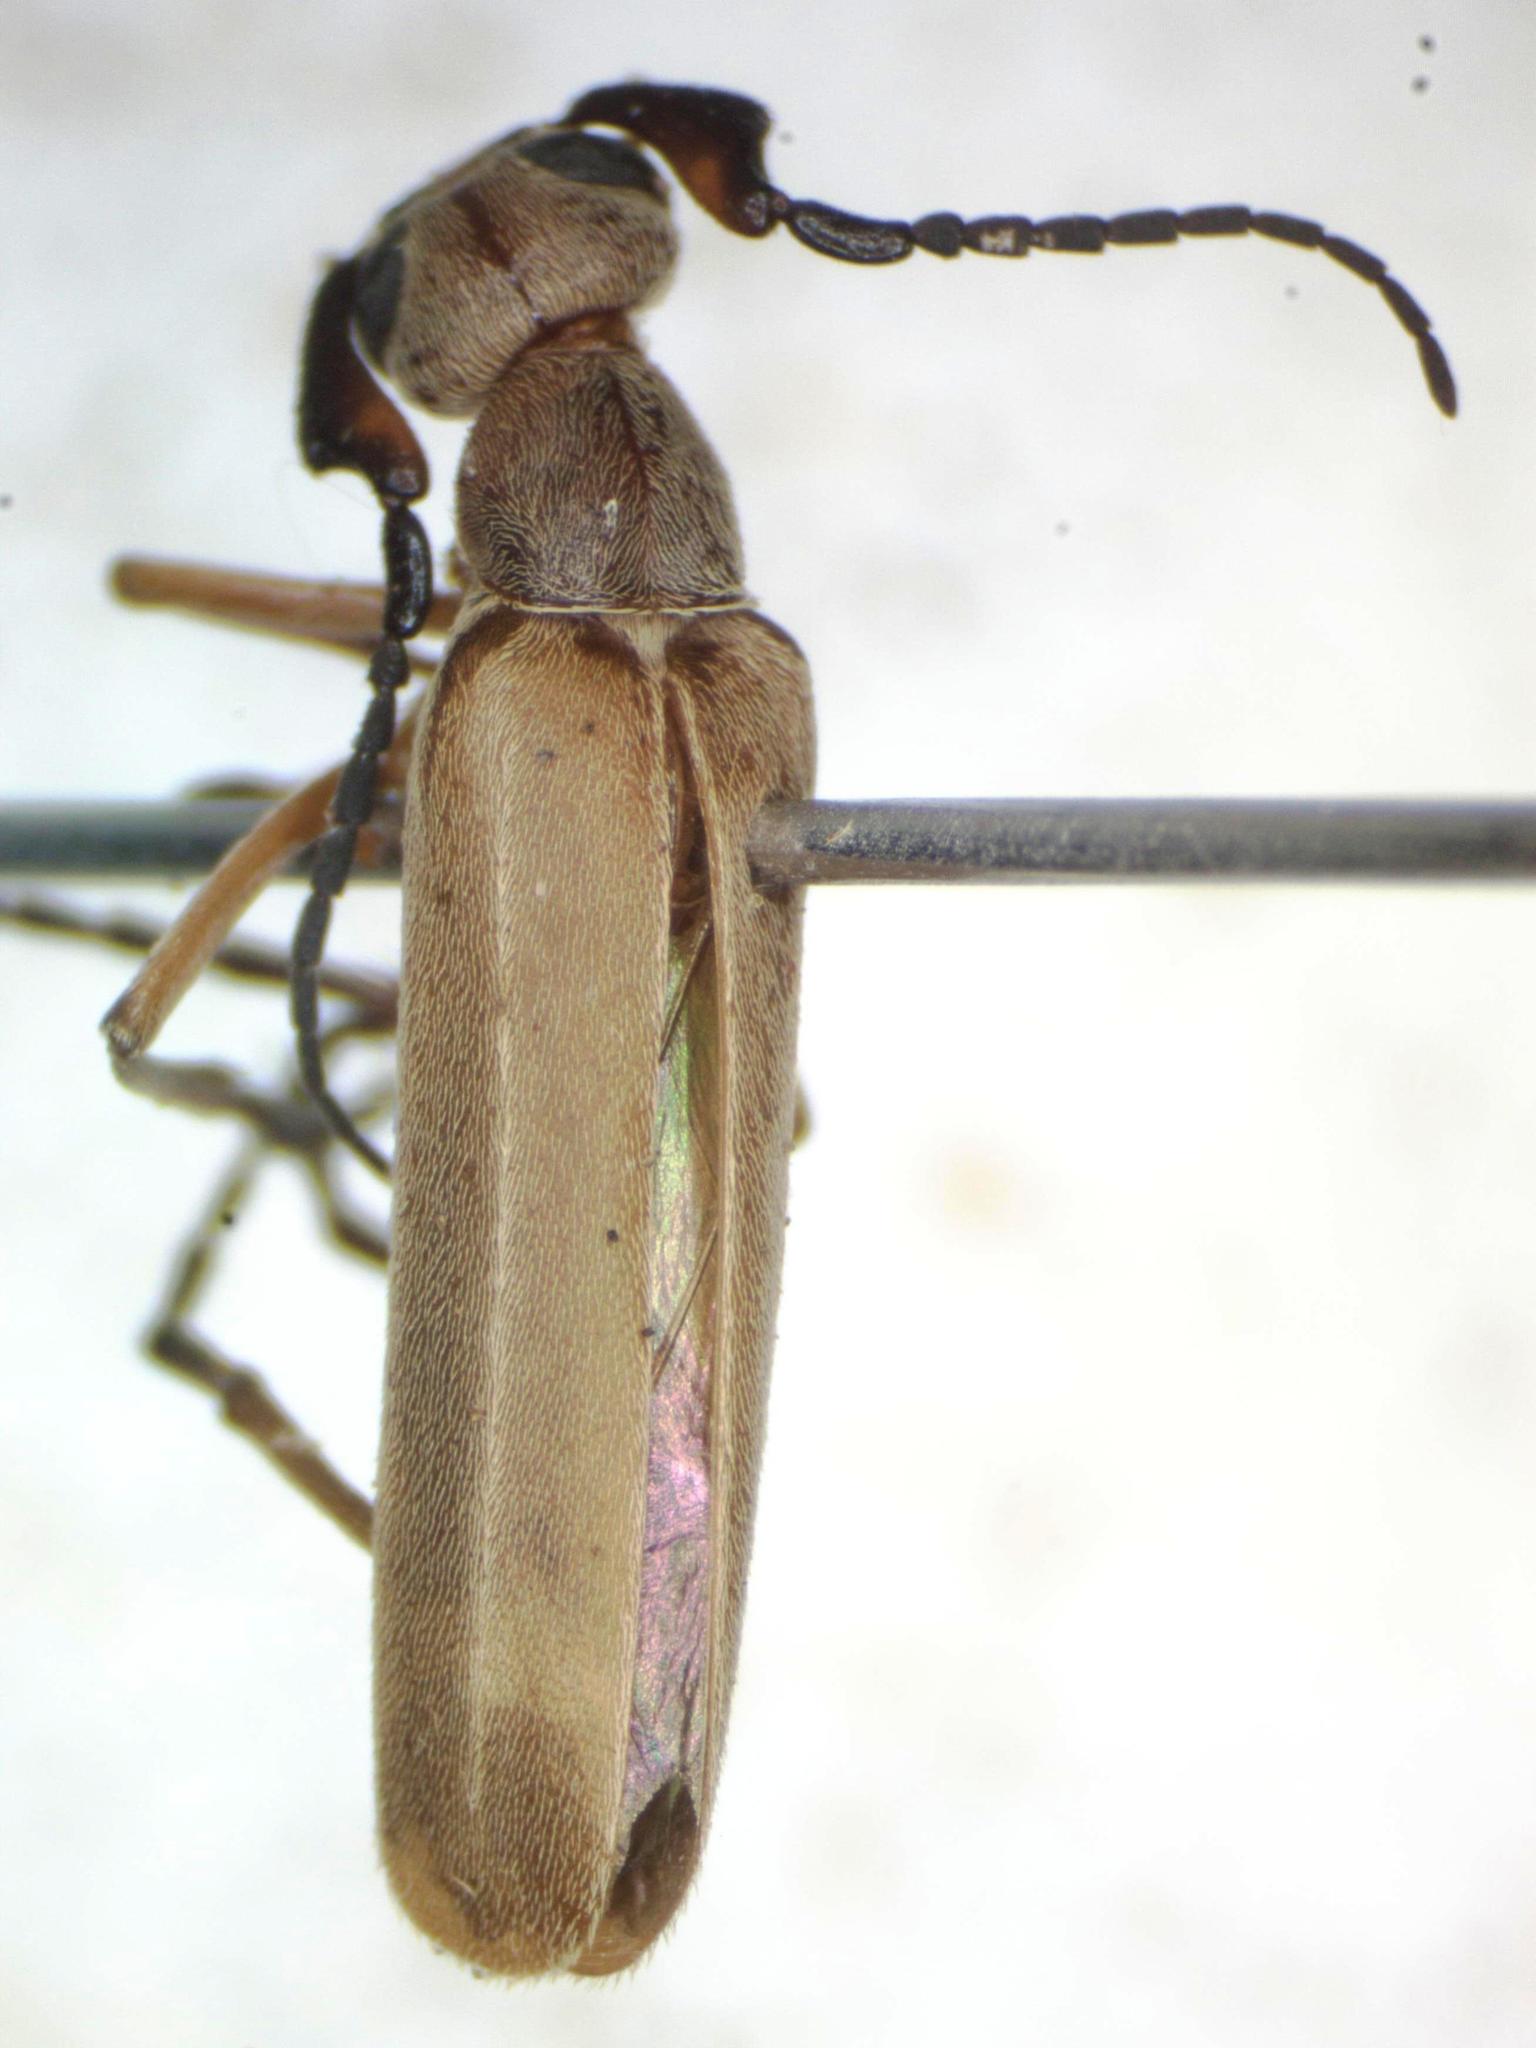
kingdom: Animalia
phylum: Arthropoda
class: Insecta
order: Coleoptera
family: Meloidae
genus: Epicauta
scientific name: Epicauta distorta
